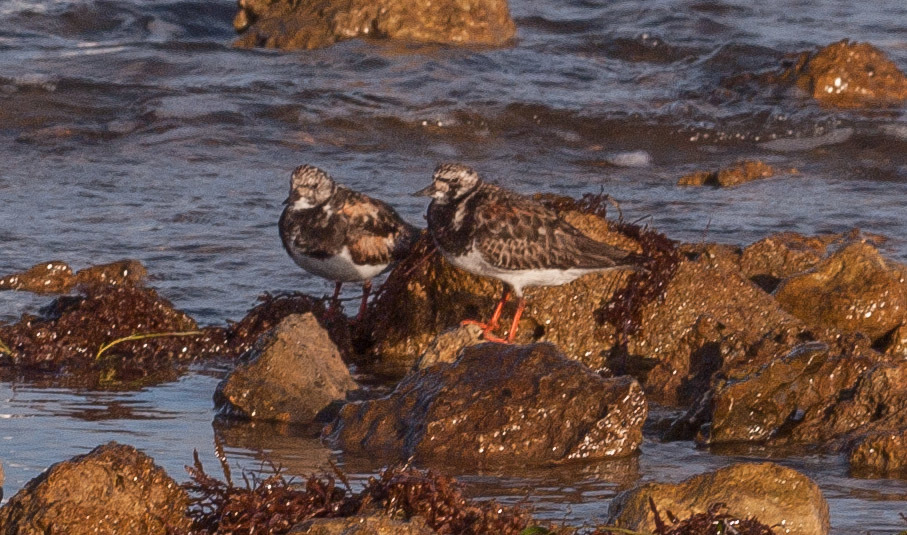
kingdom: Animalia
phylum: Chordata
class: Aves
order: Charadriiformes
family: Scolopacidae
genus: Arenaria
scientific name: Arenaria interpres
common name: Ruddy turnstone
